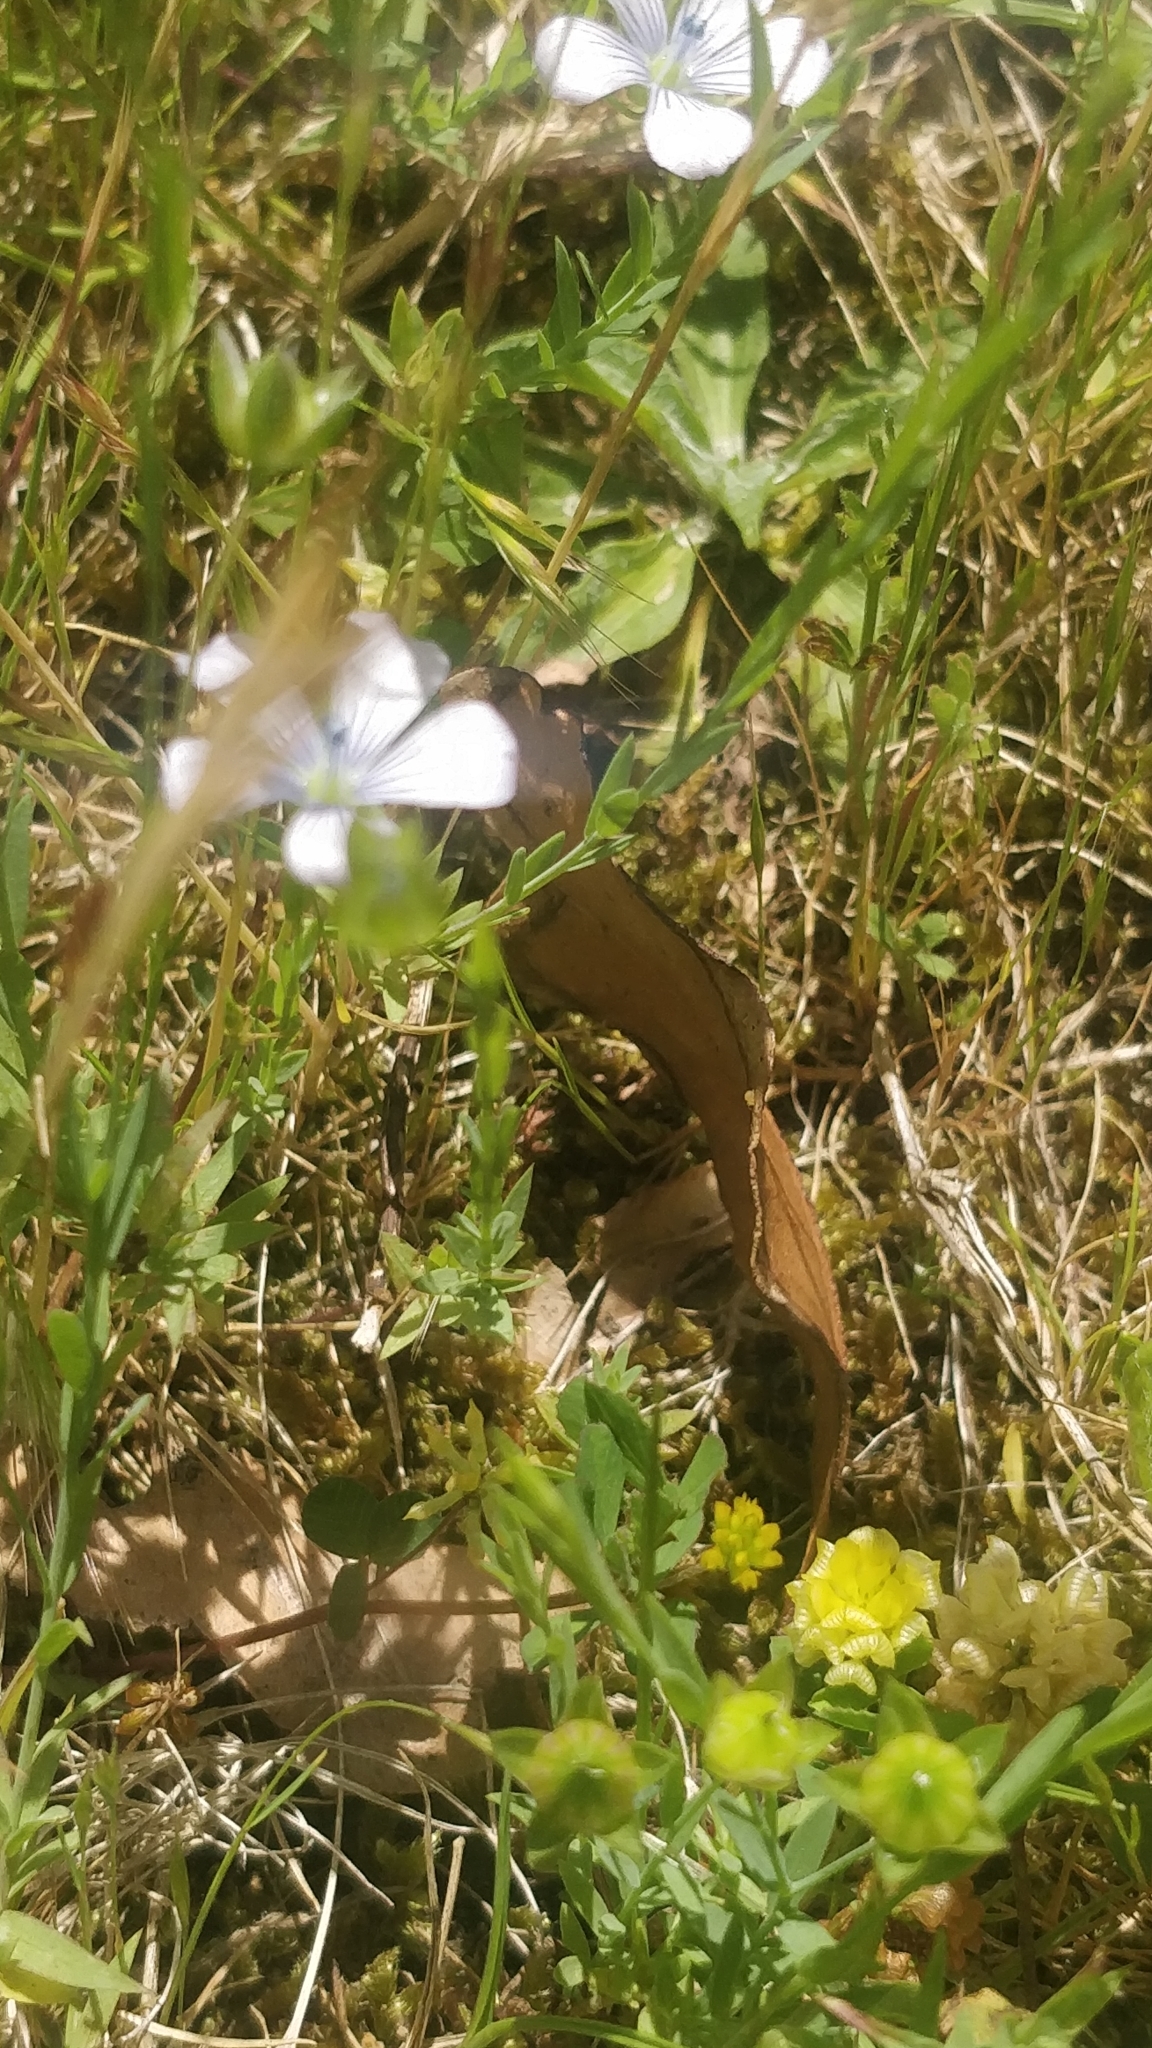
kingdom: Plantae
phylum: Tracheophyta
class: Magnoliopsida
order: Malpighiales
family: Linaceae
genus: Linum
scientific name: Linum bienne
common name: Pale flax
